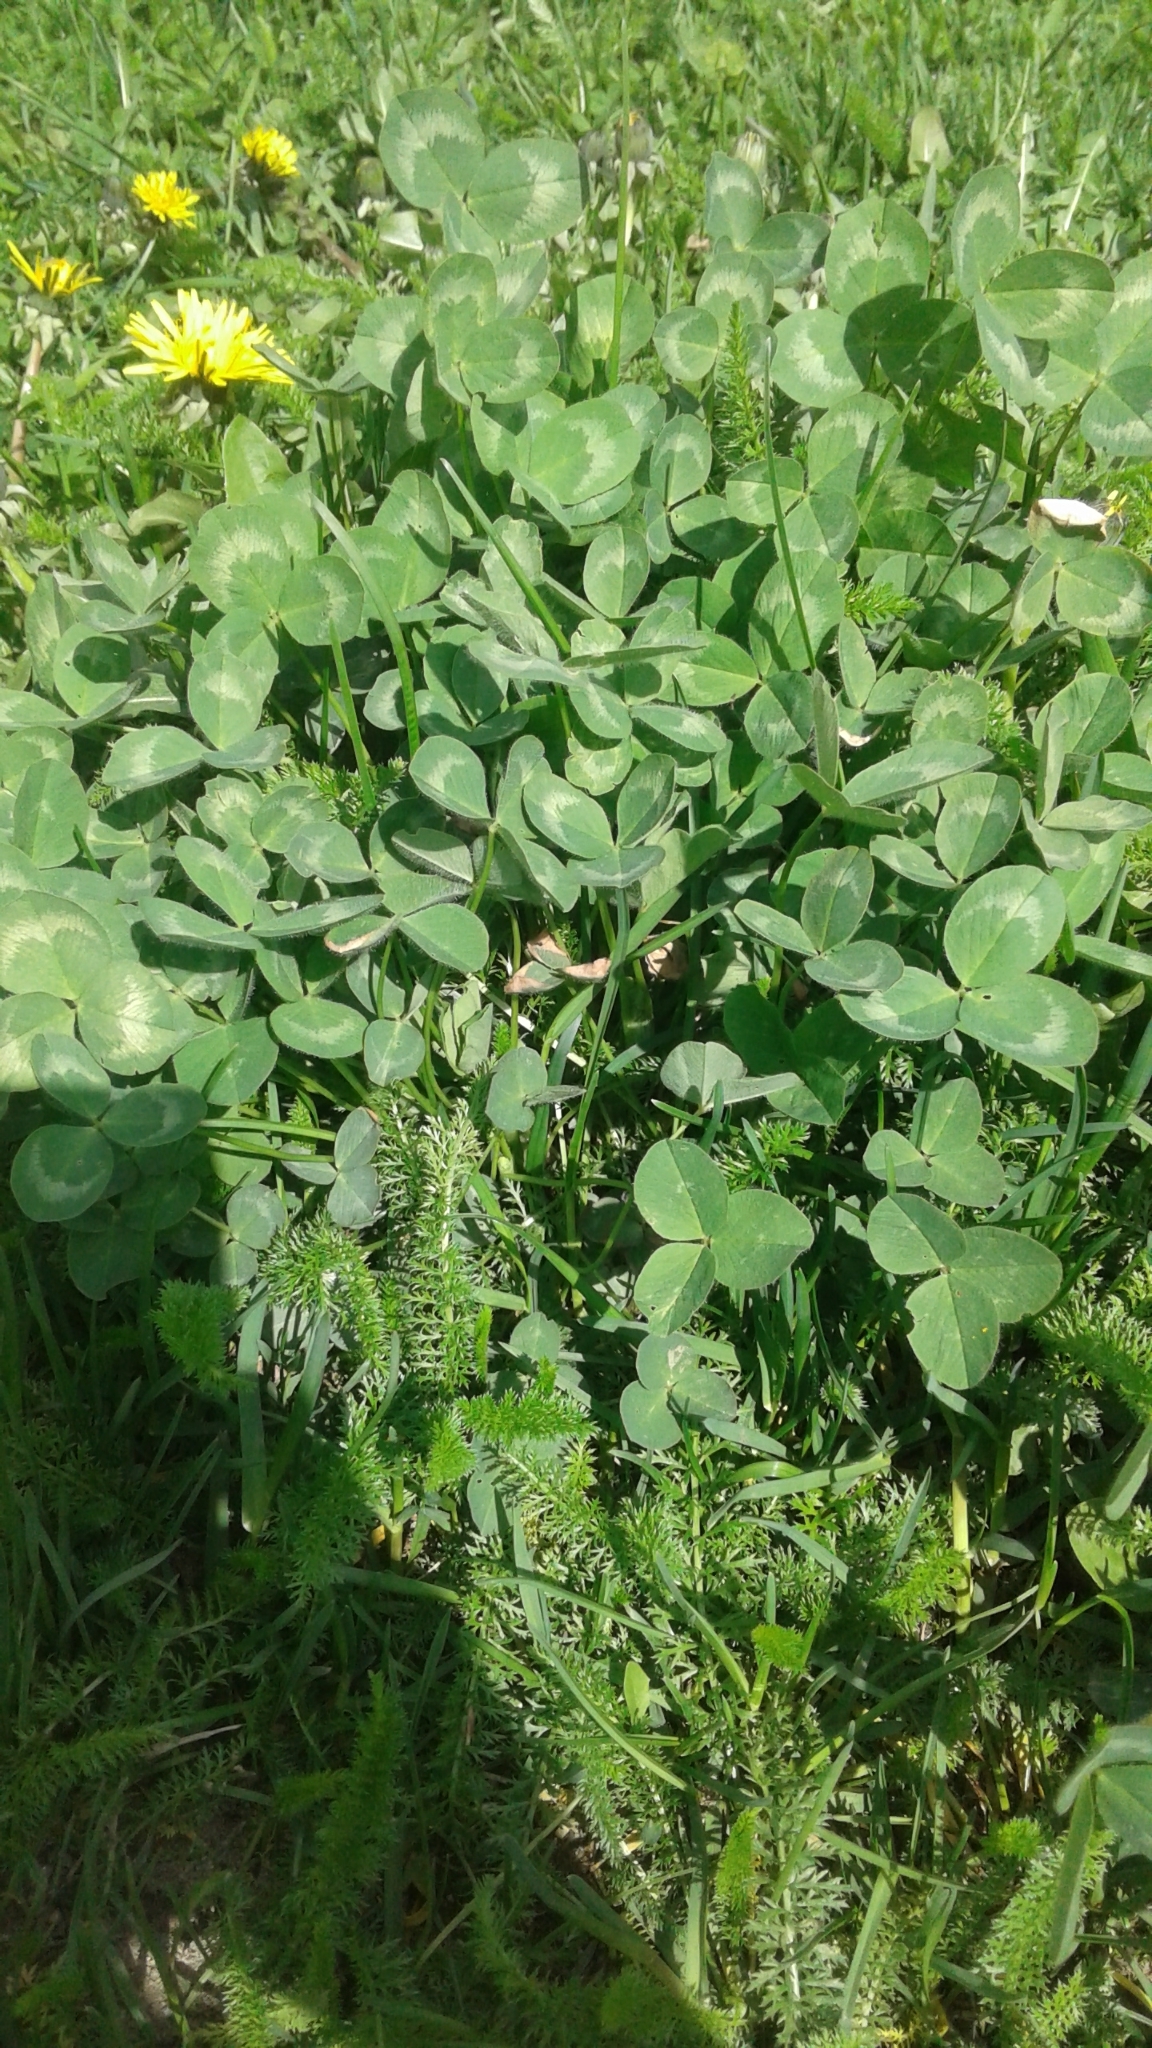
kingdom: Plantae
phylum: Tracheophyta
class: Magnoliopsida
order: Fabales
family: Fabaceae
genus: Trifolium
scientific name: Trifolium pratense
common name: Red clover
